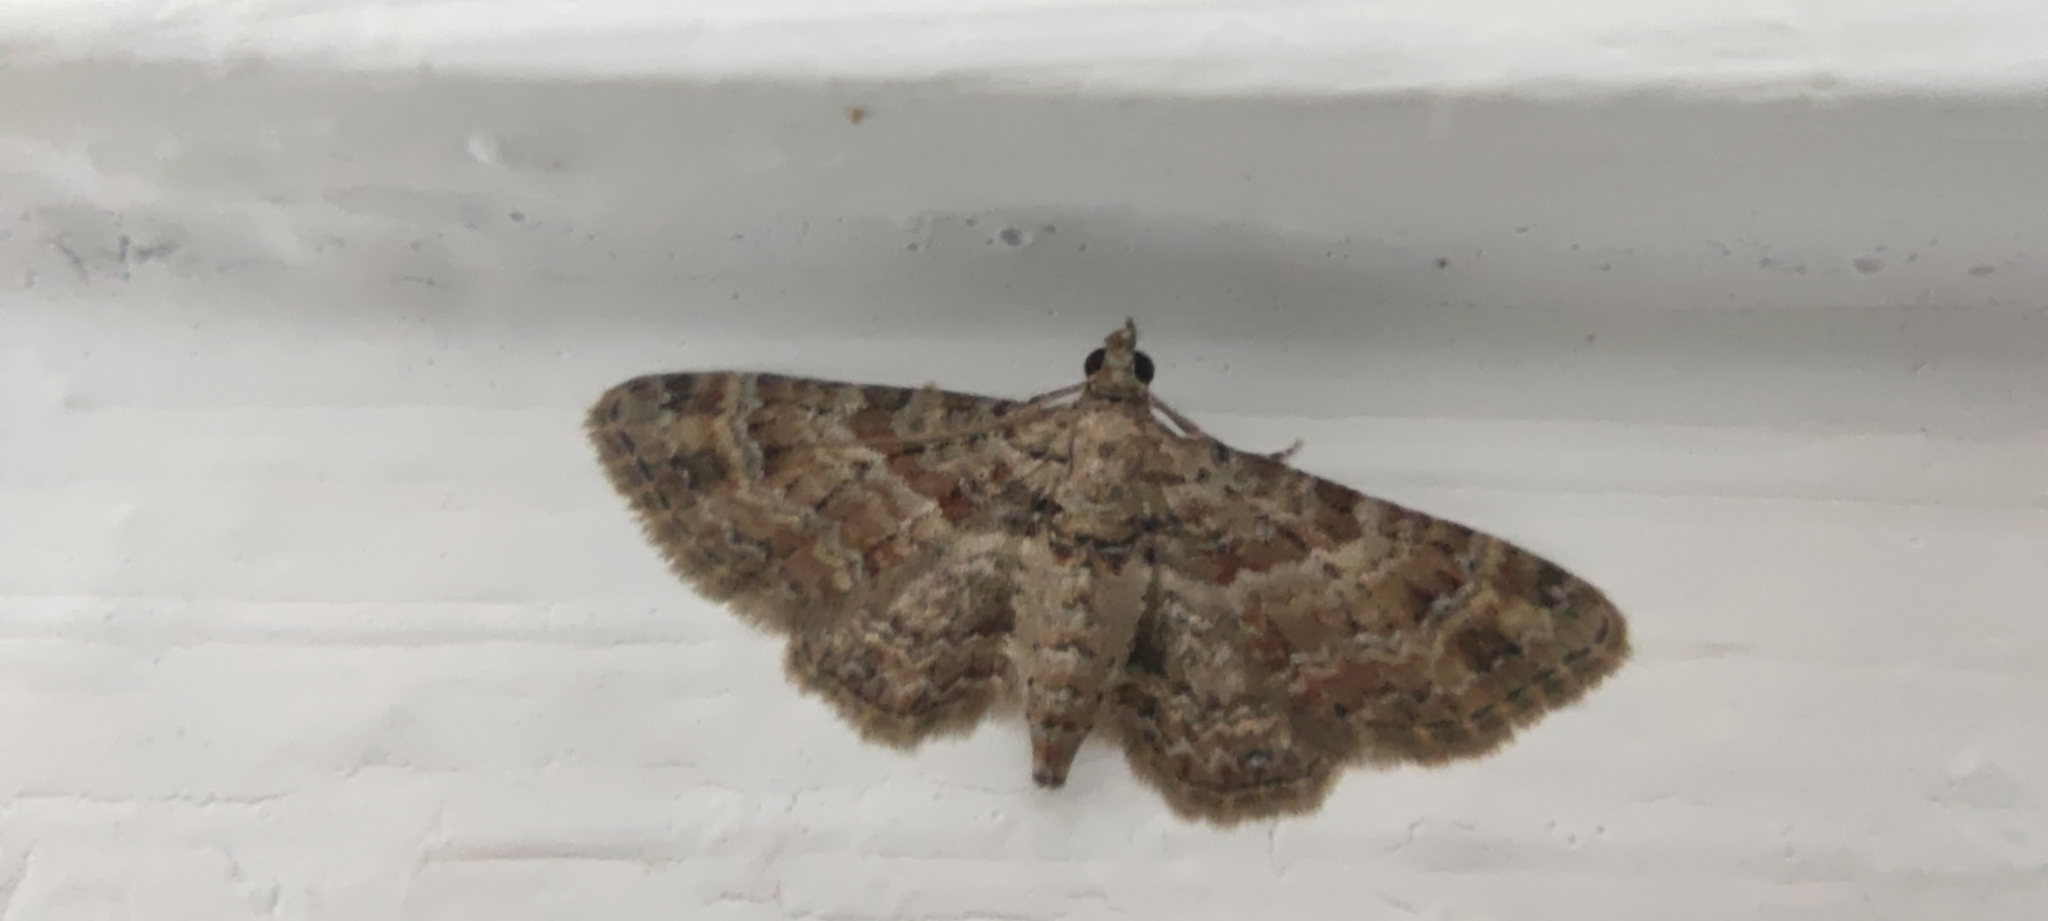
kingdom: Animalia
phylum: Arthropoda
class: Insecta
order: Lepidoptera
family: Geometridae
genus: Gymnoscelis
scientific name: Gymnoscelis rufifasciata
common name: Double-striped pug
